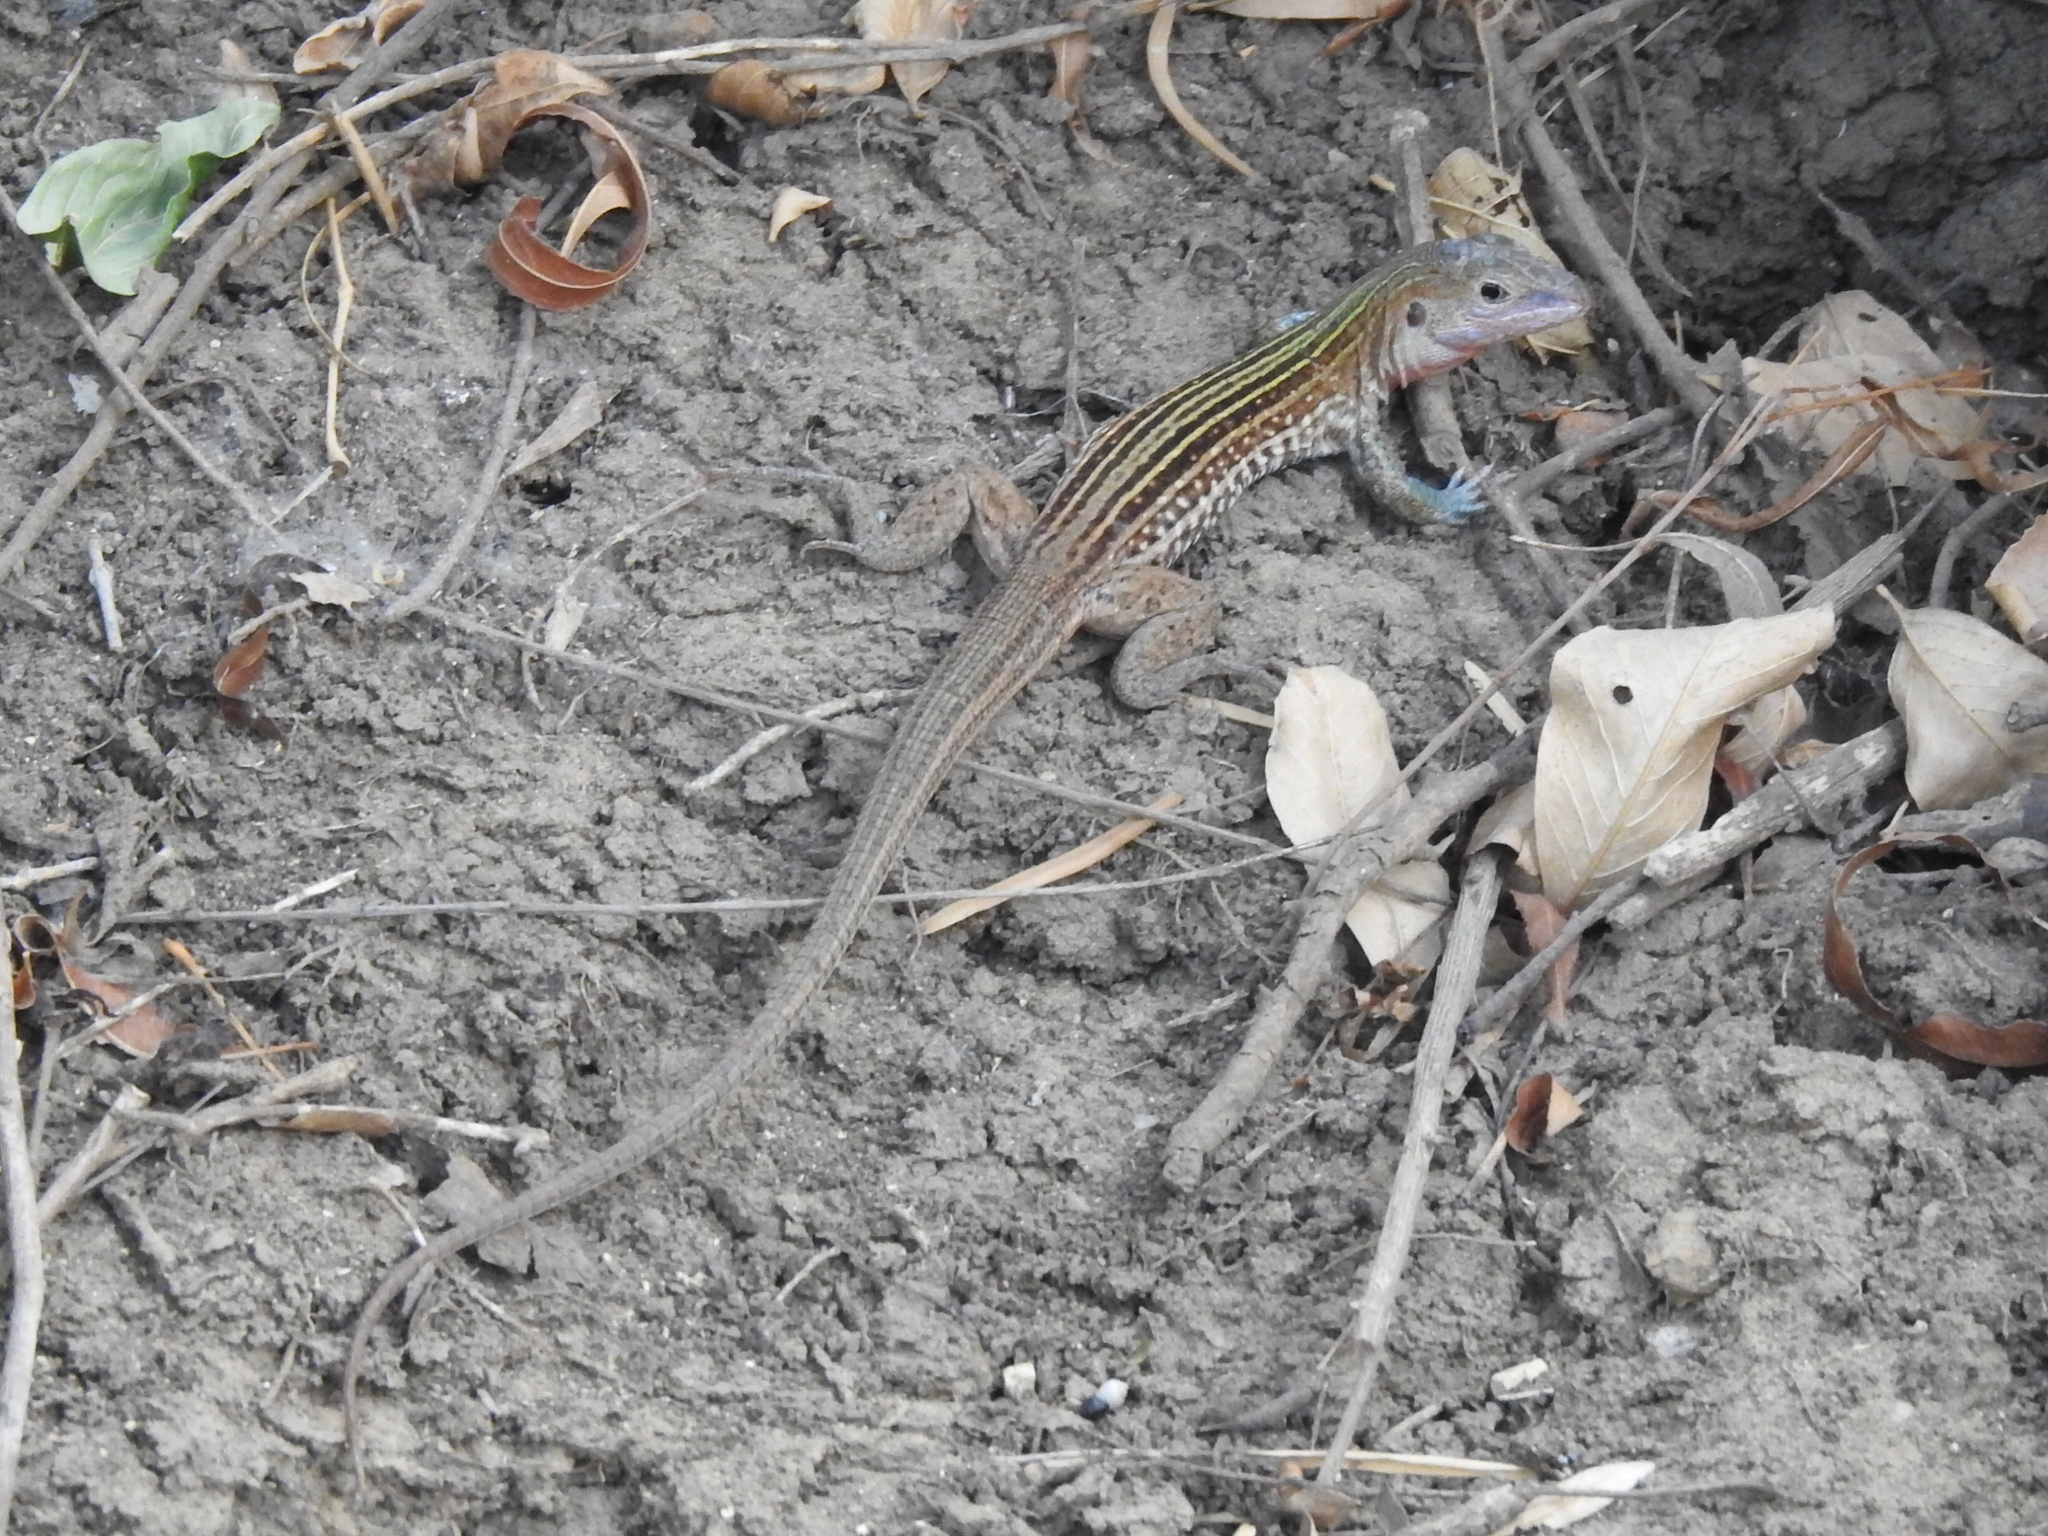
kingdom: Animalia
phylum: Chordata
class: Squamata
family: Teiidae
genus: Aspidoscelis
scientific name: Aspidoscelis gularis
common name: Eastern spotted whiptail
